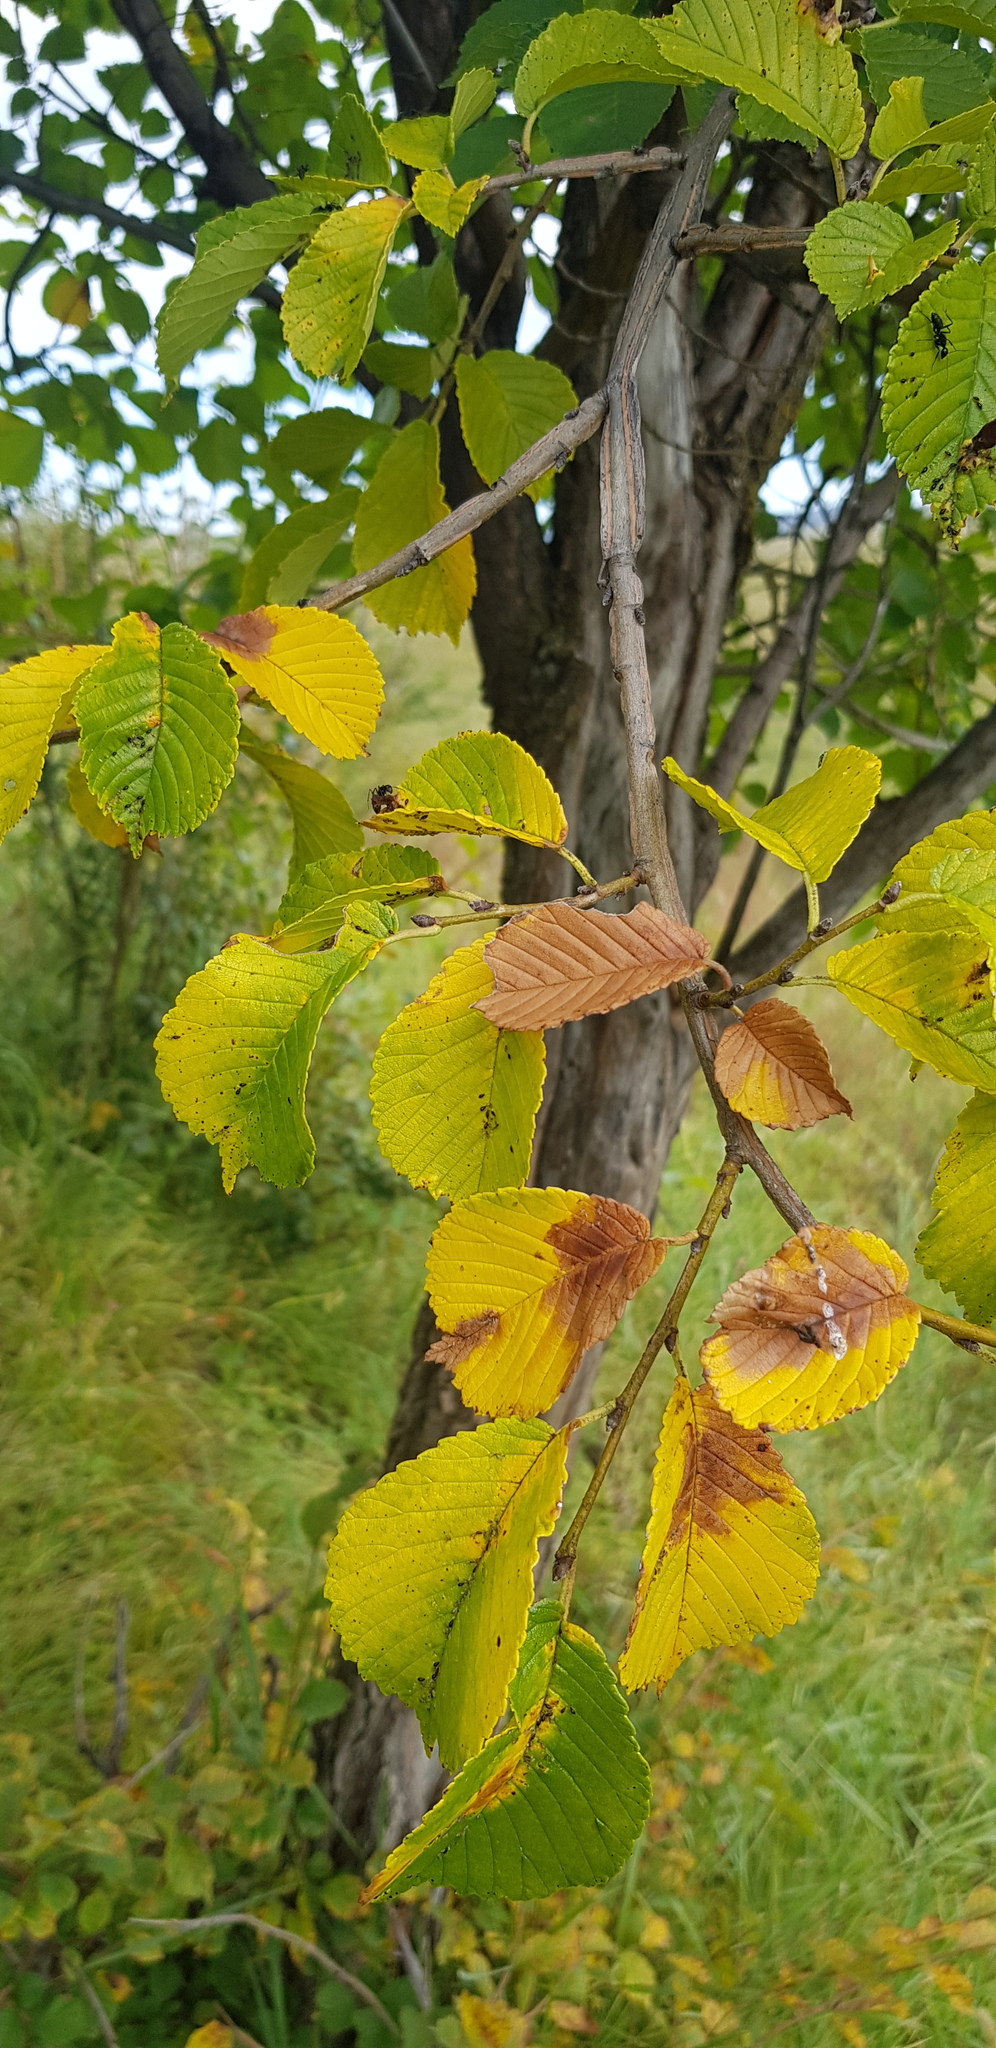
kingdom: Plantae
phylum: Tracheophyta
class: Magnoliopsida
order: Rosales
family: Ulmaceae
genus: Ulmus
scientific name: Ulmus macrocarpa
